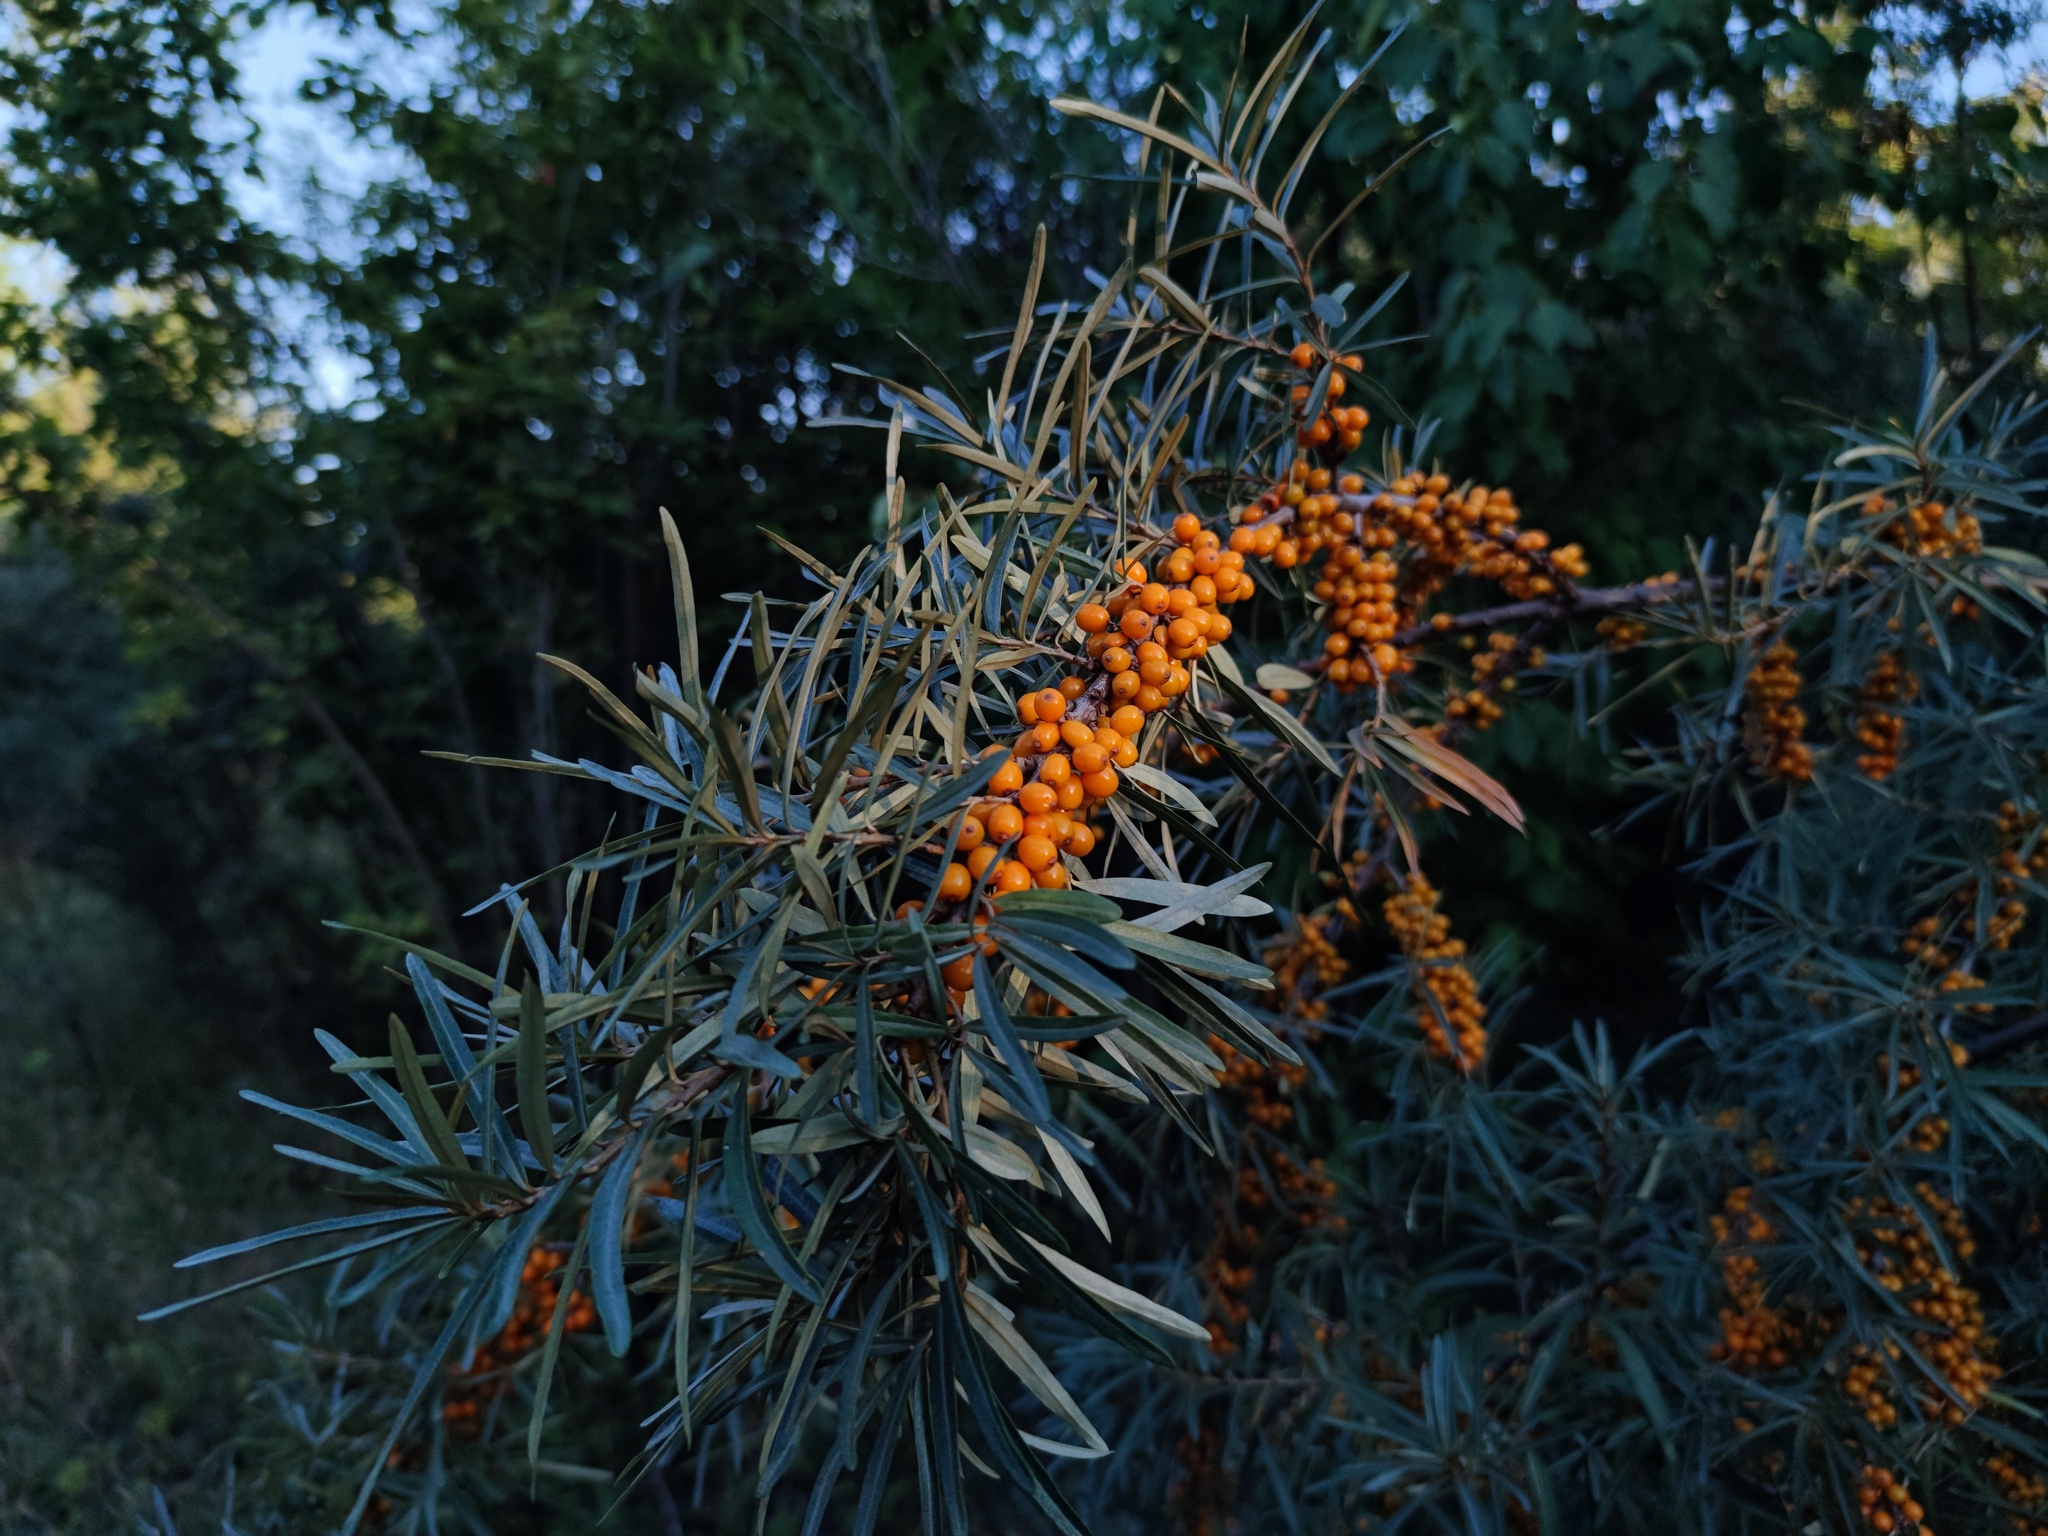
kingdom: Plantae
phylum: Tracheophyta
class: Magnoliopsida
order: Rosales
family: Elaeagnaceae
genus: Hippophae
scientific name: Hippophae rhamnoides
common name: Sea-buckthorn
